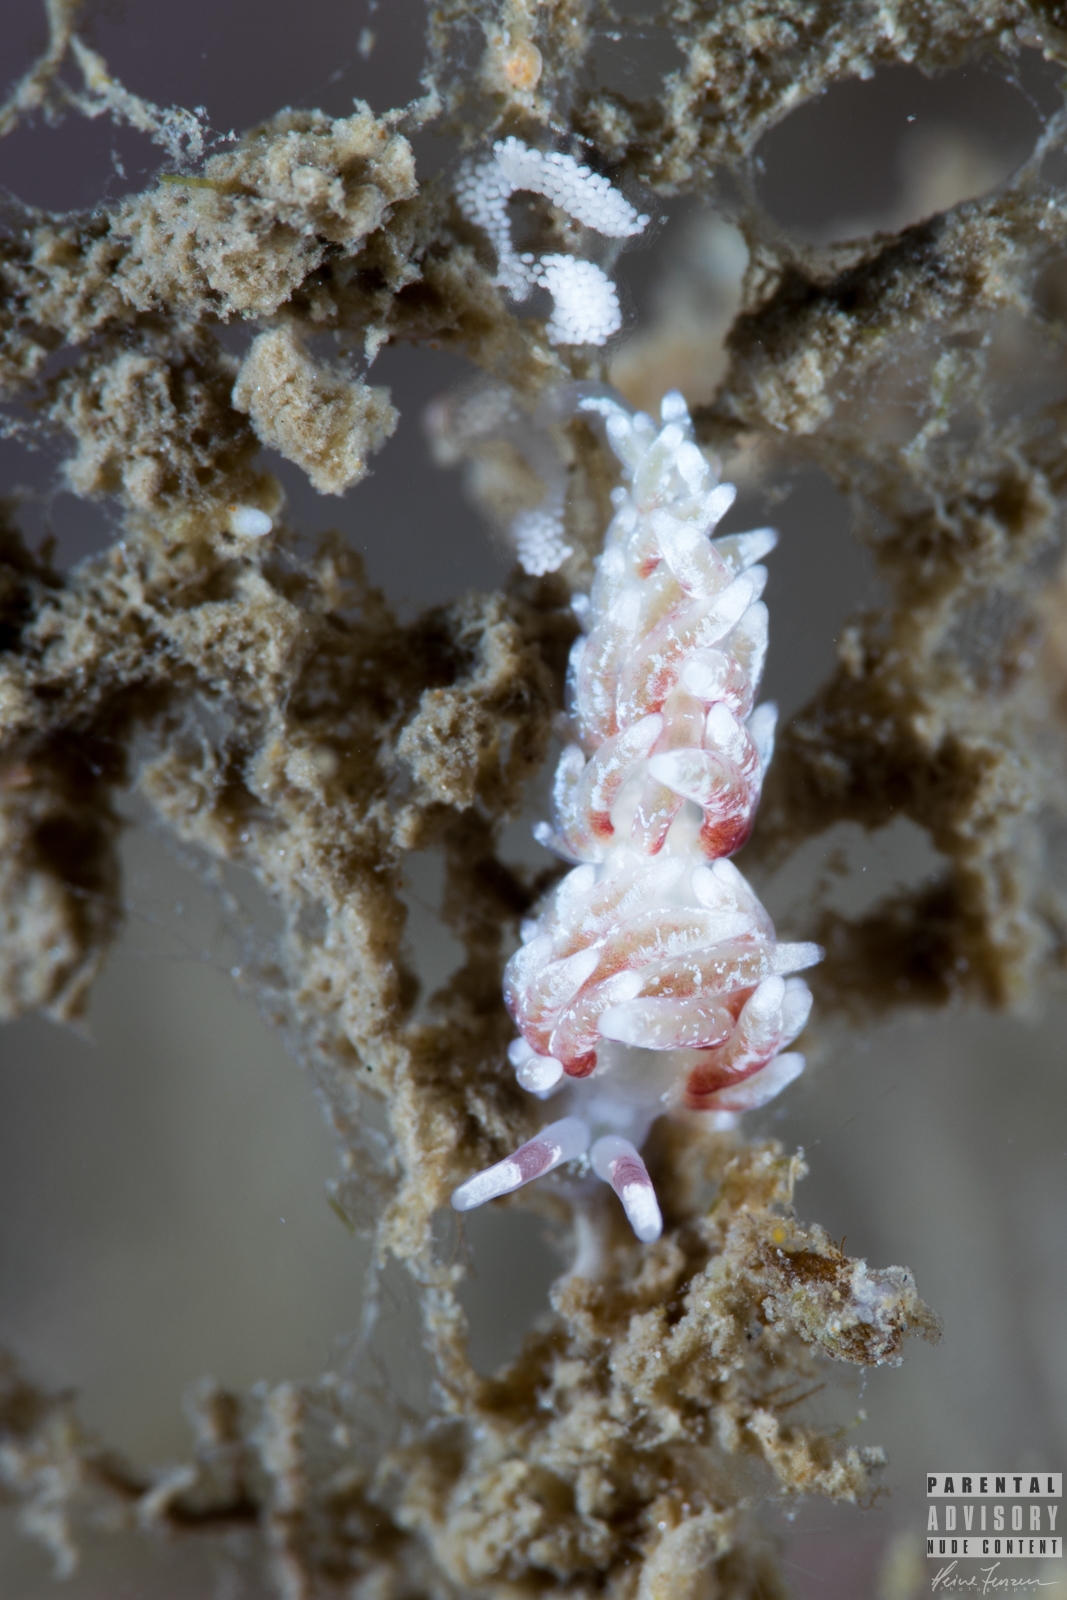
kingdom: Animalia
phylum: Mollusca
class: Gastropoda
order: Nudibranchia
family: Trinchesiidae
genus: Rubramoena
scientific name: Rubramoena rubescens
